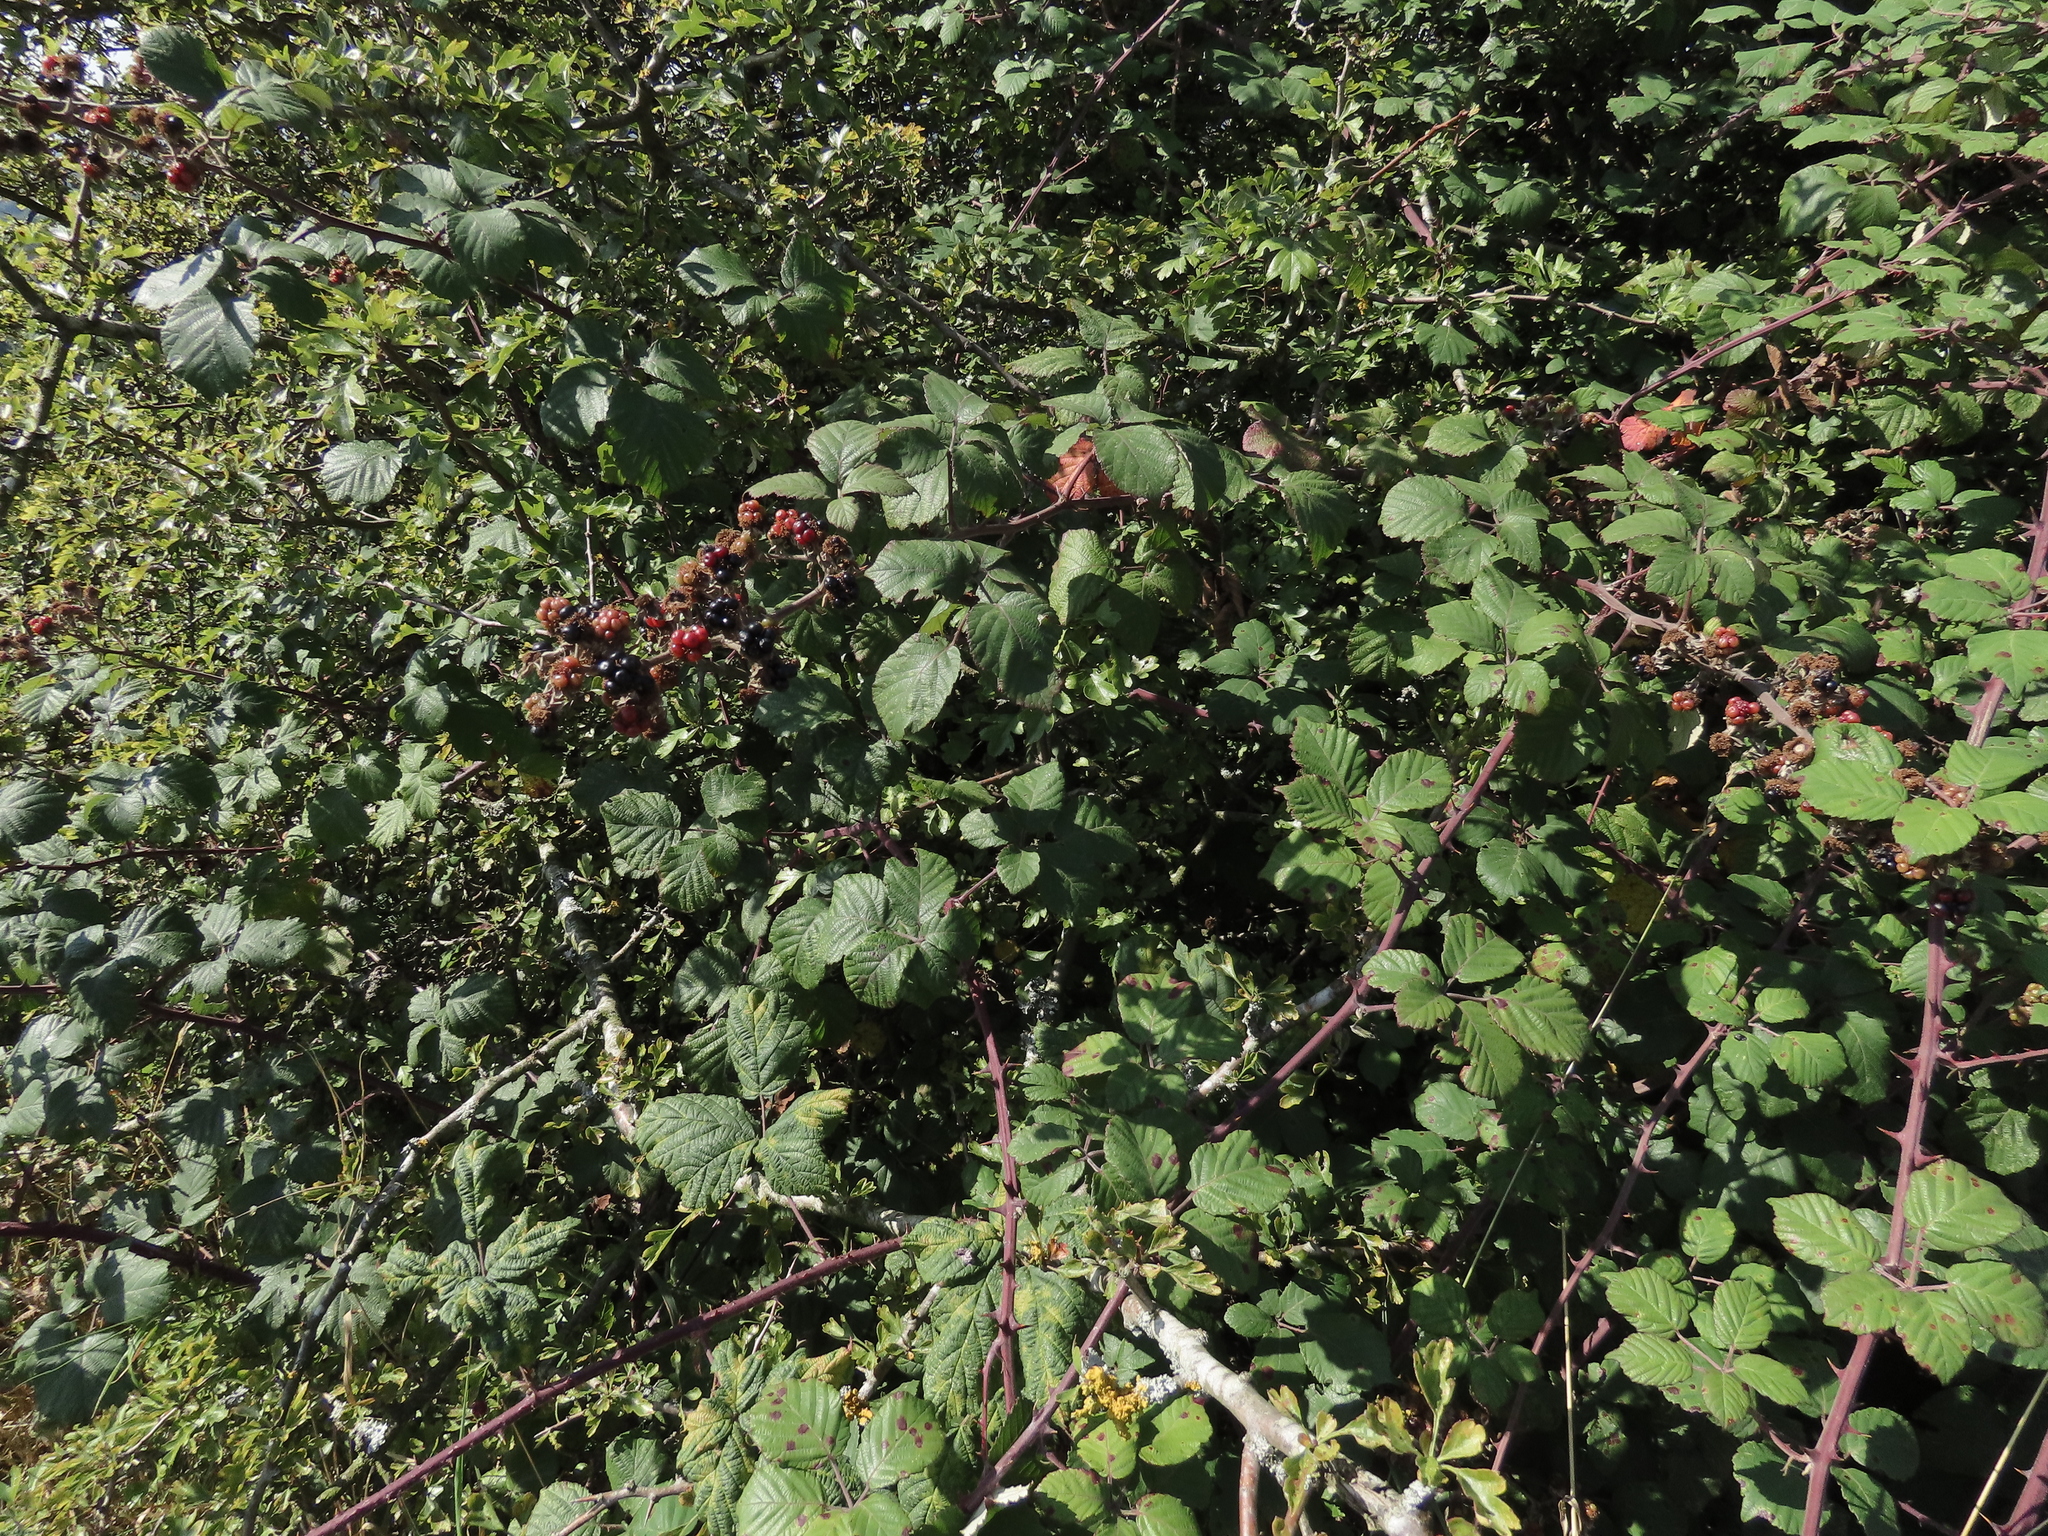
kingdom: Plantae
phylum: Tracheophyta
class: Magnoliopsida
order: Rosales
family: Rosaceae
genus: Rubus
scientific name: Rubus ulmifolius
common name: Elmleaf blackberry
